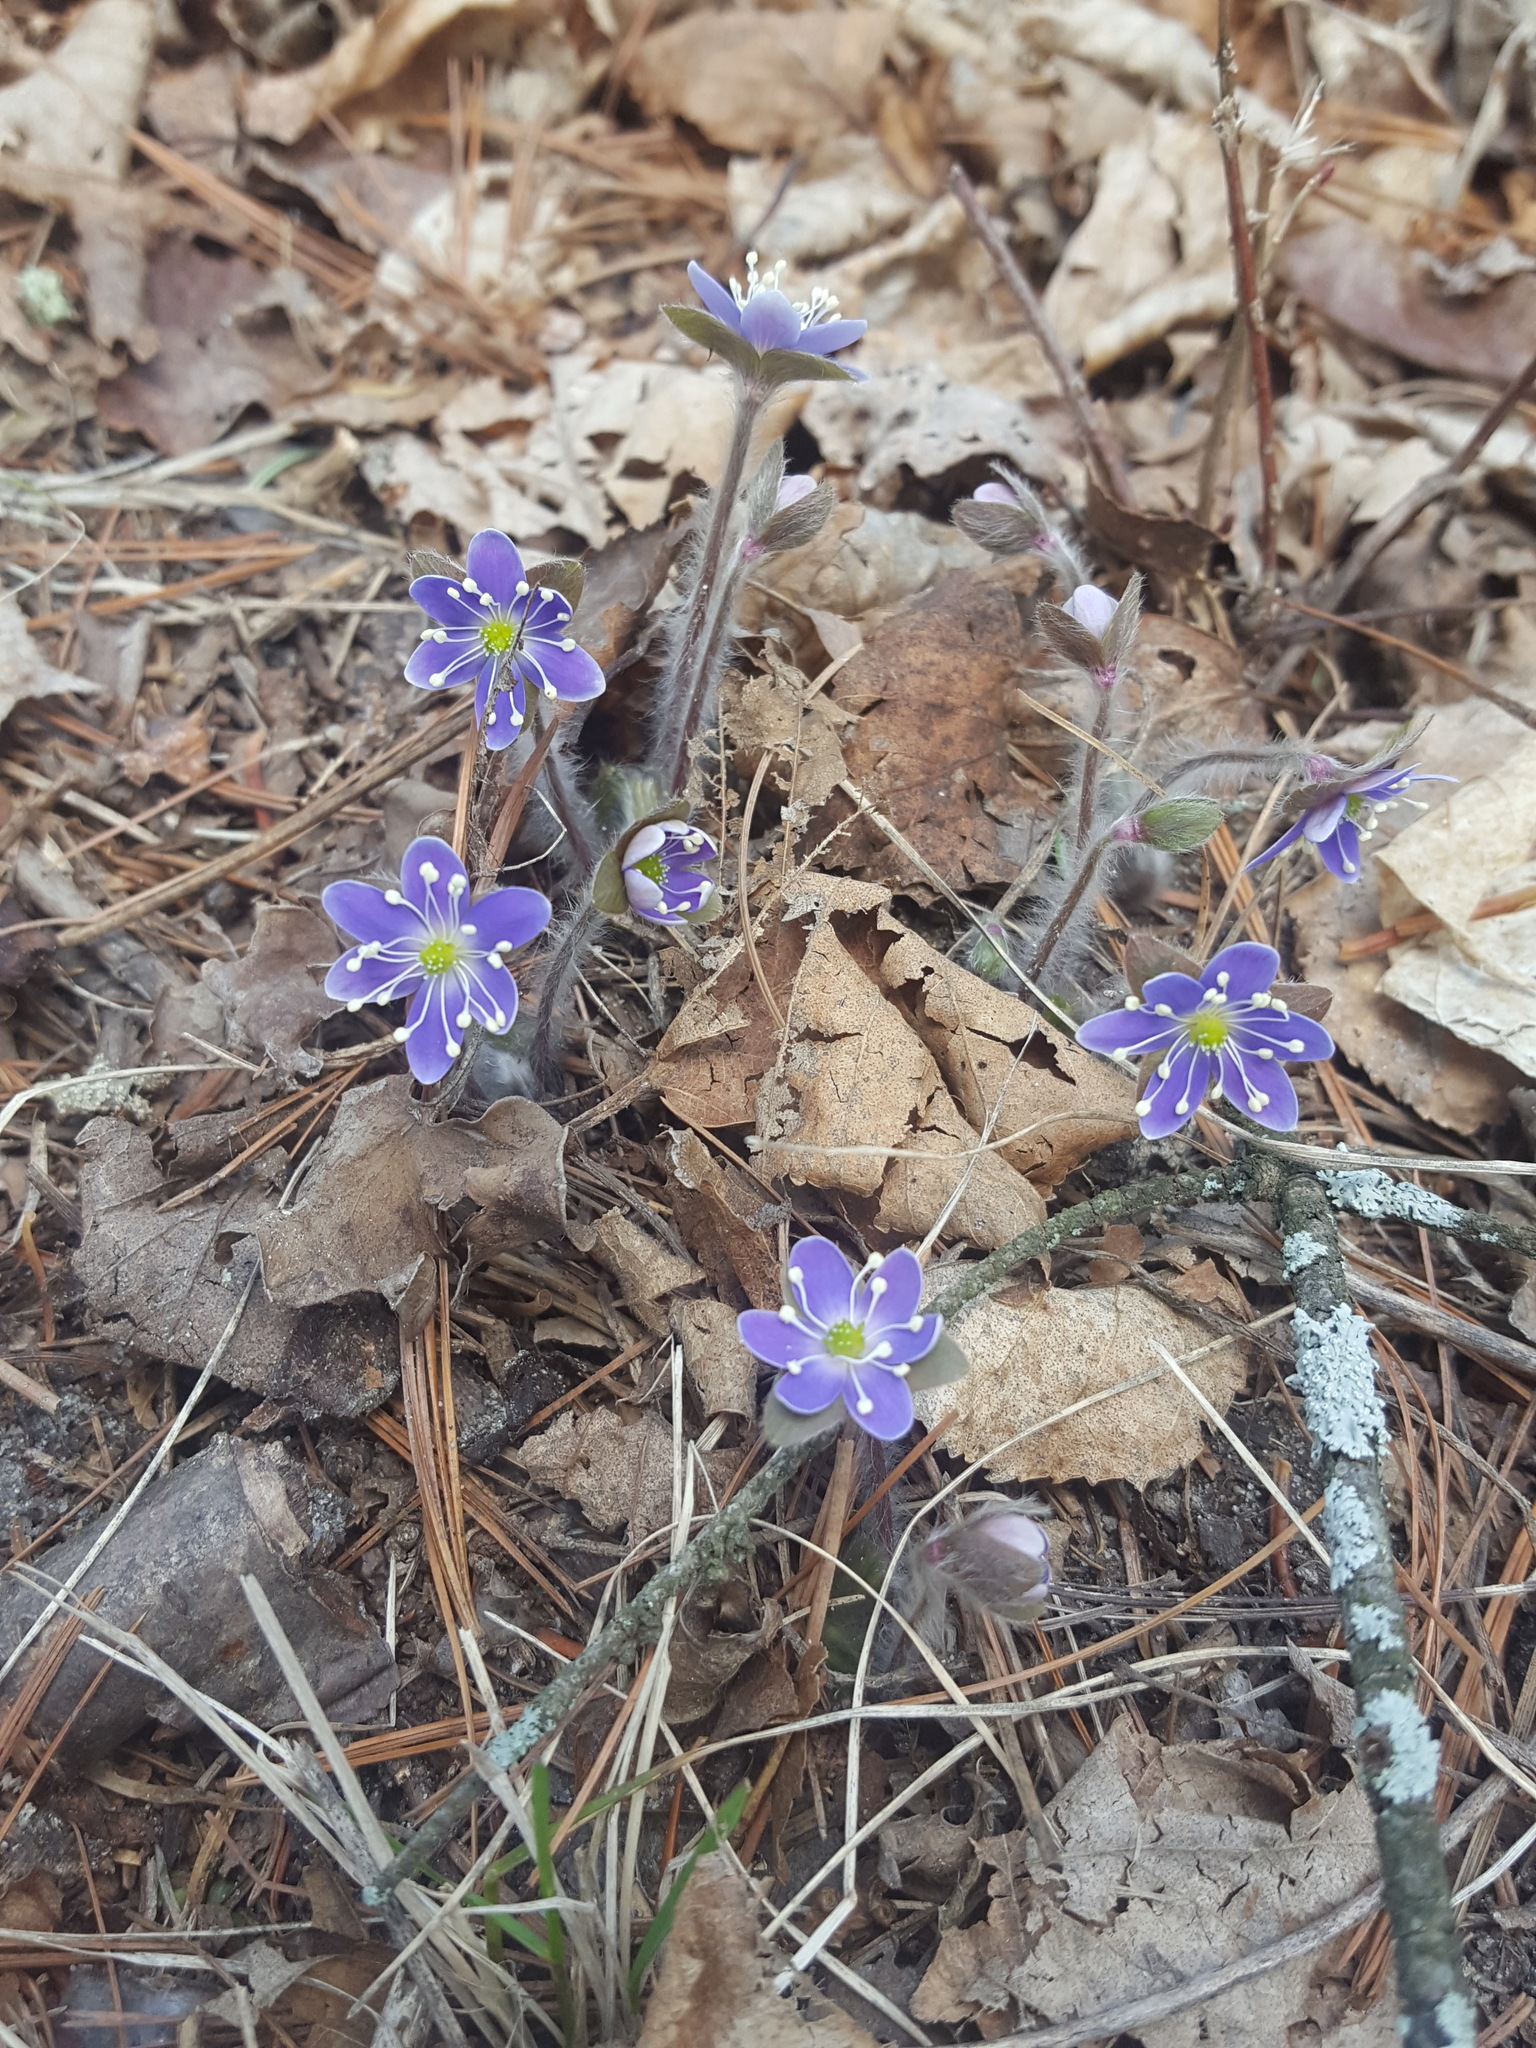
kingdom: Plantae
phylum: Tracheophyta
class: Magnoliopsida
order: Ranunculales
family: Ranunculaceae
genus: Hepatica
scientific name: Hepatica americana
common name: American hepatica
